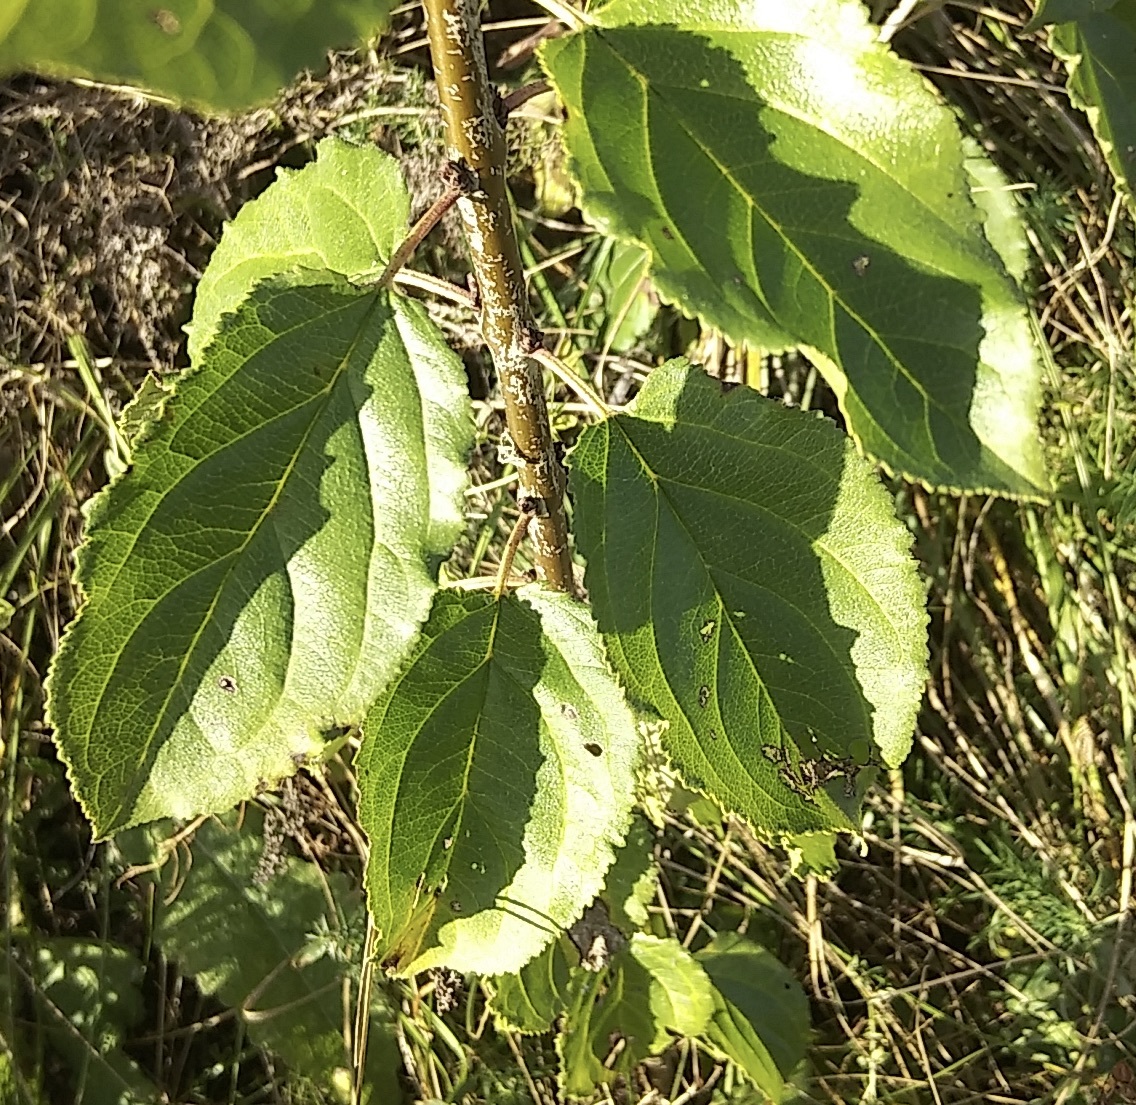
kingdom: Plantae
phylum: Tracheophyta
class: Magnoliopsida
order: Rosales
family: Rhamnaceae
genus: Rhamnus
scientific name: Rhamnus cathartica
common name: Common buckthorn
